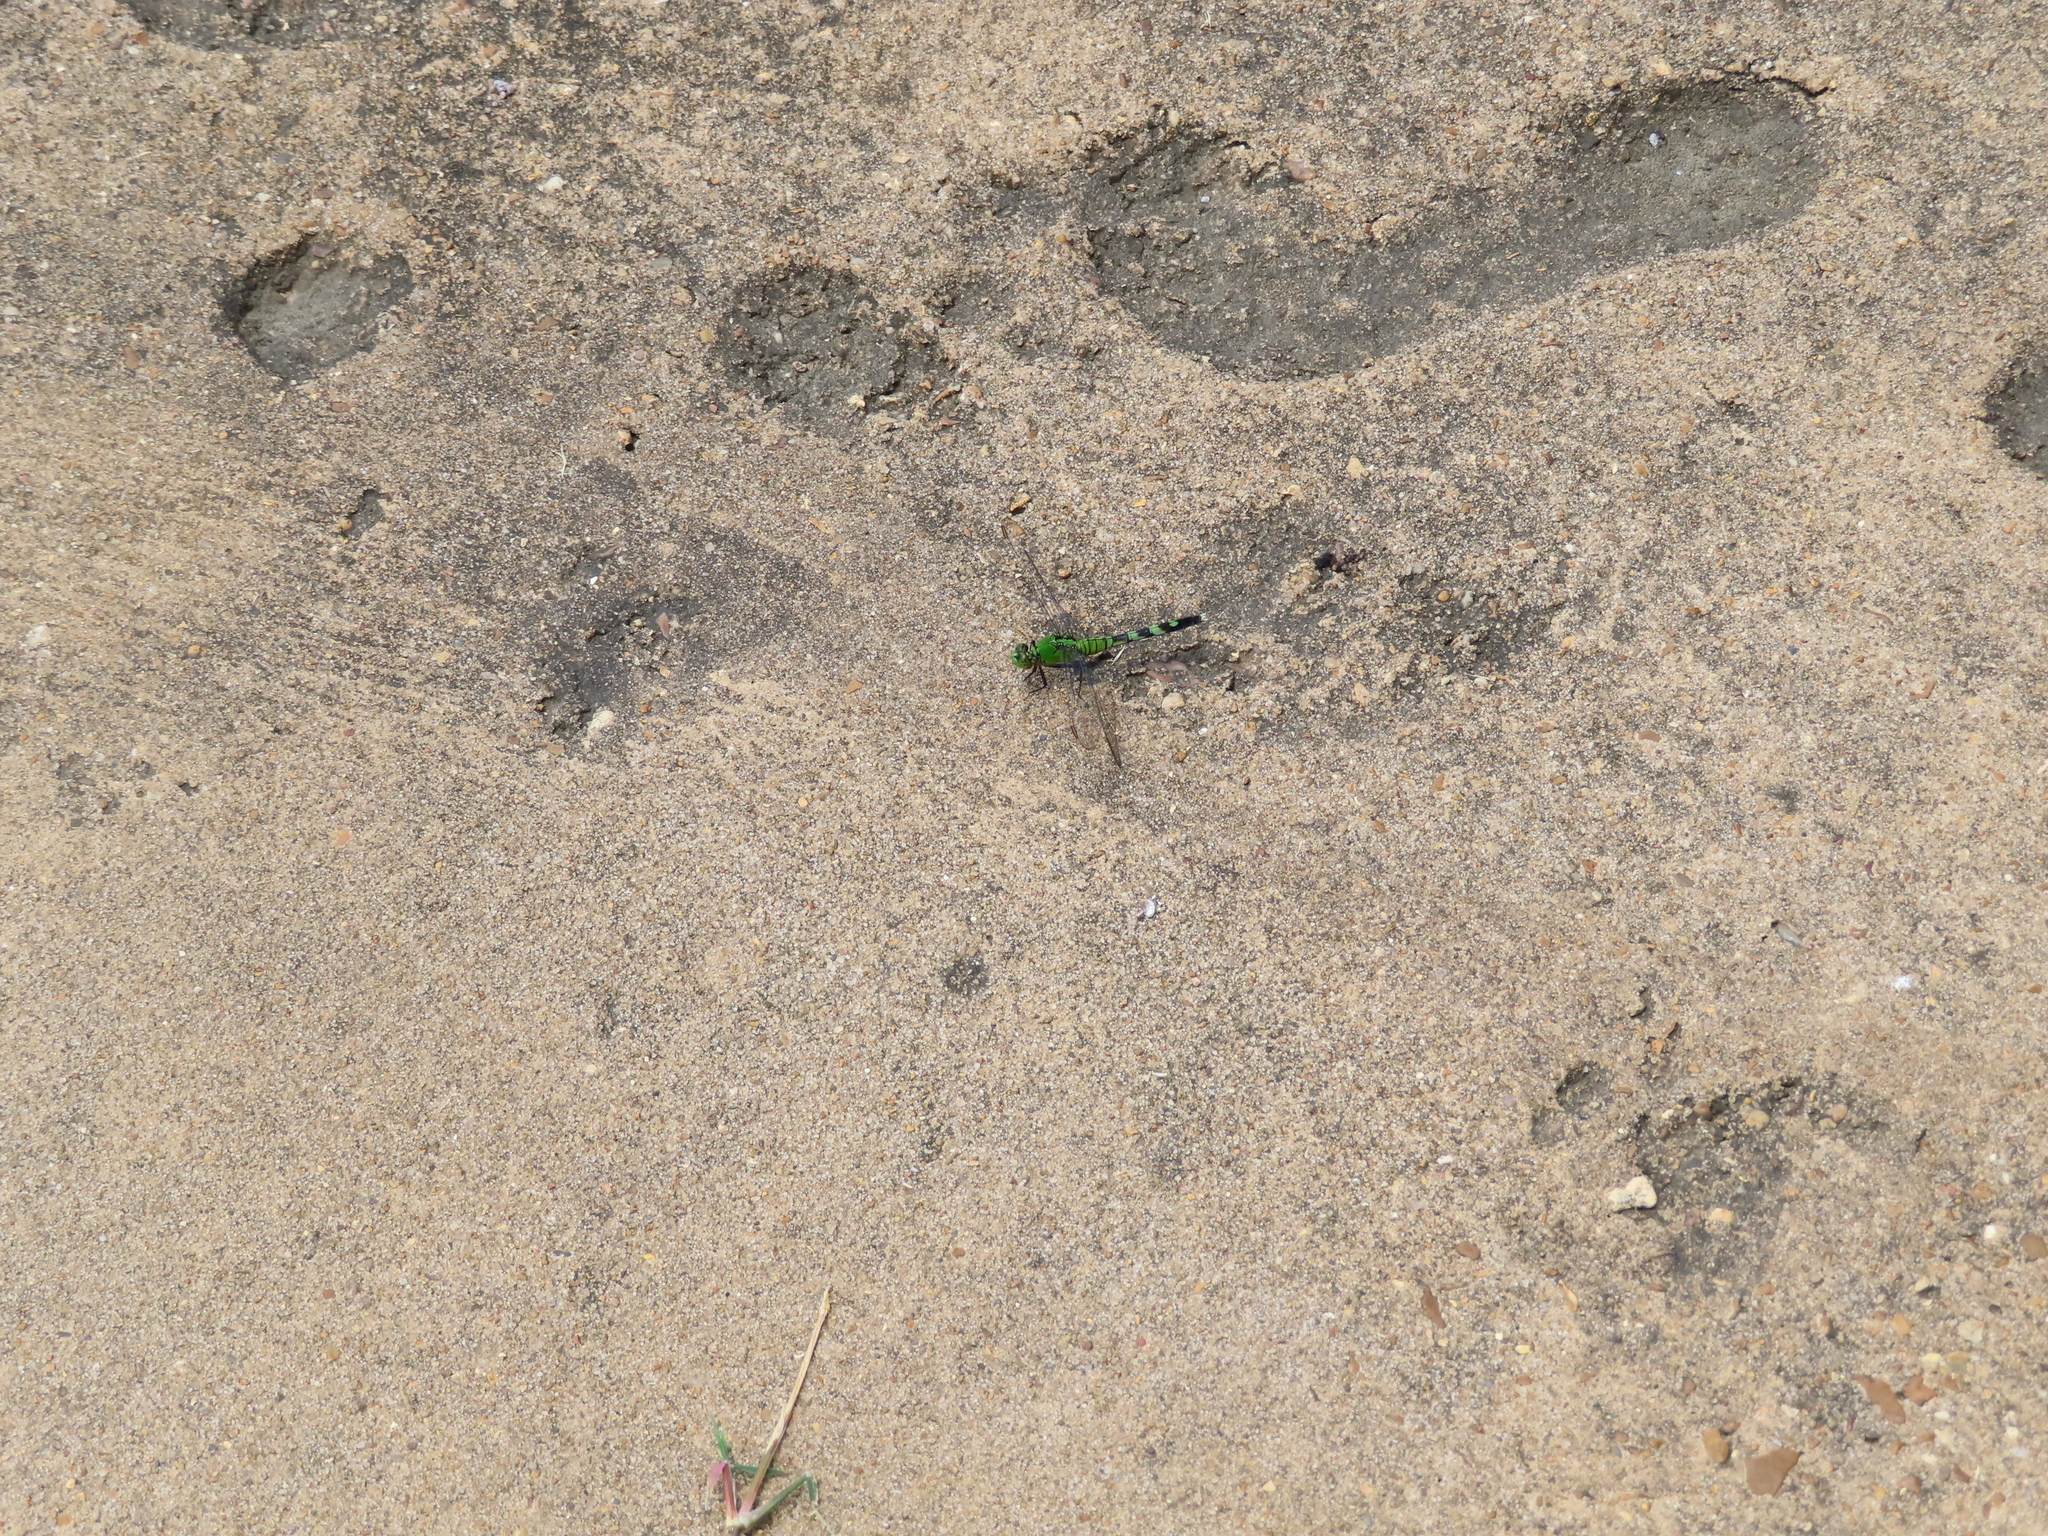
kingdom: Animalia
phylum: Arthropoda
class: Insecta
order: Odonata
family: Libellulidae
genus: Erythemis
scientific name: Erythemis simplicicollis
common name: Eastern pondhawk
